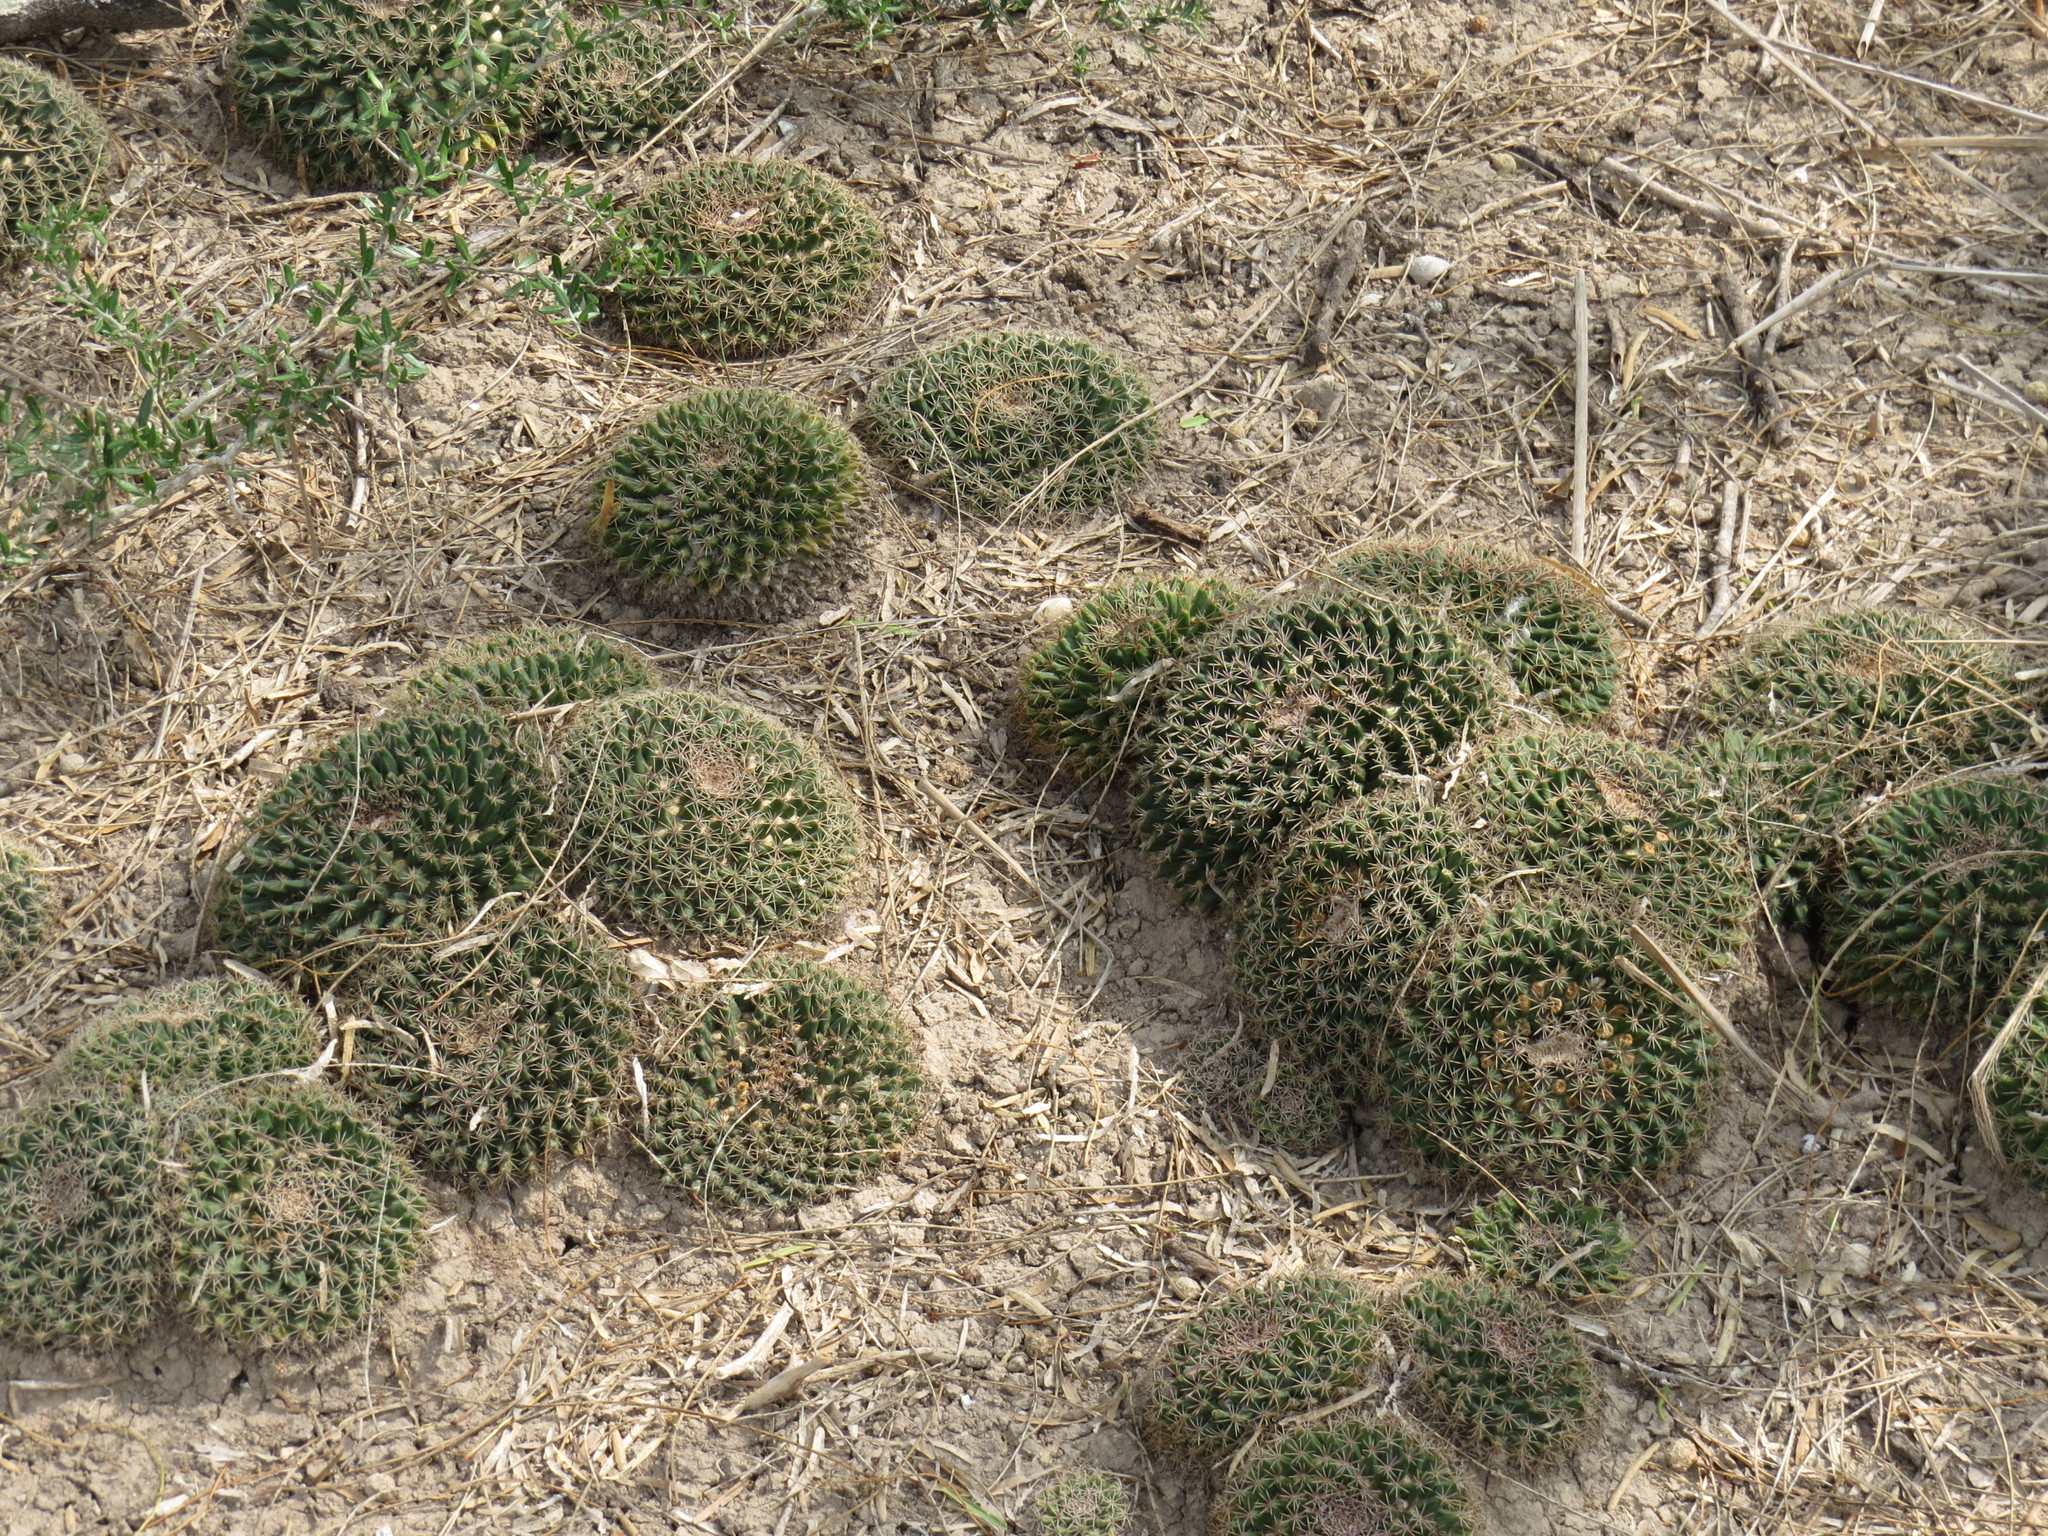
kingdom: Plantae
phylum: Tracheophyta
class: Magnoliopsida
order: Caryophyllales
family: Cactaceae
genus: Mammillaria
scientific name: Mammillaria heyderi
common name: Little nipple cactus
